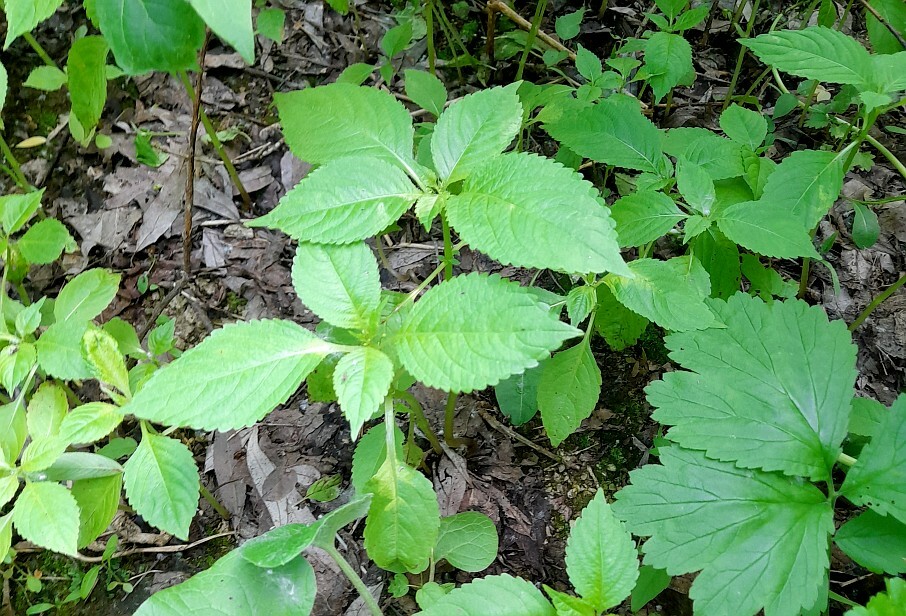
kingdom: Plantae
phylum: Tracheophyta
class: Magnoliopsida
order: Ericales
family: Balsaminaceae
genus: Impatiens
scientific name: Impatiens parviflora
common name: Small balsam
